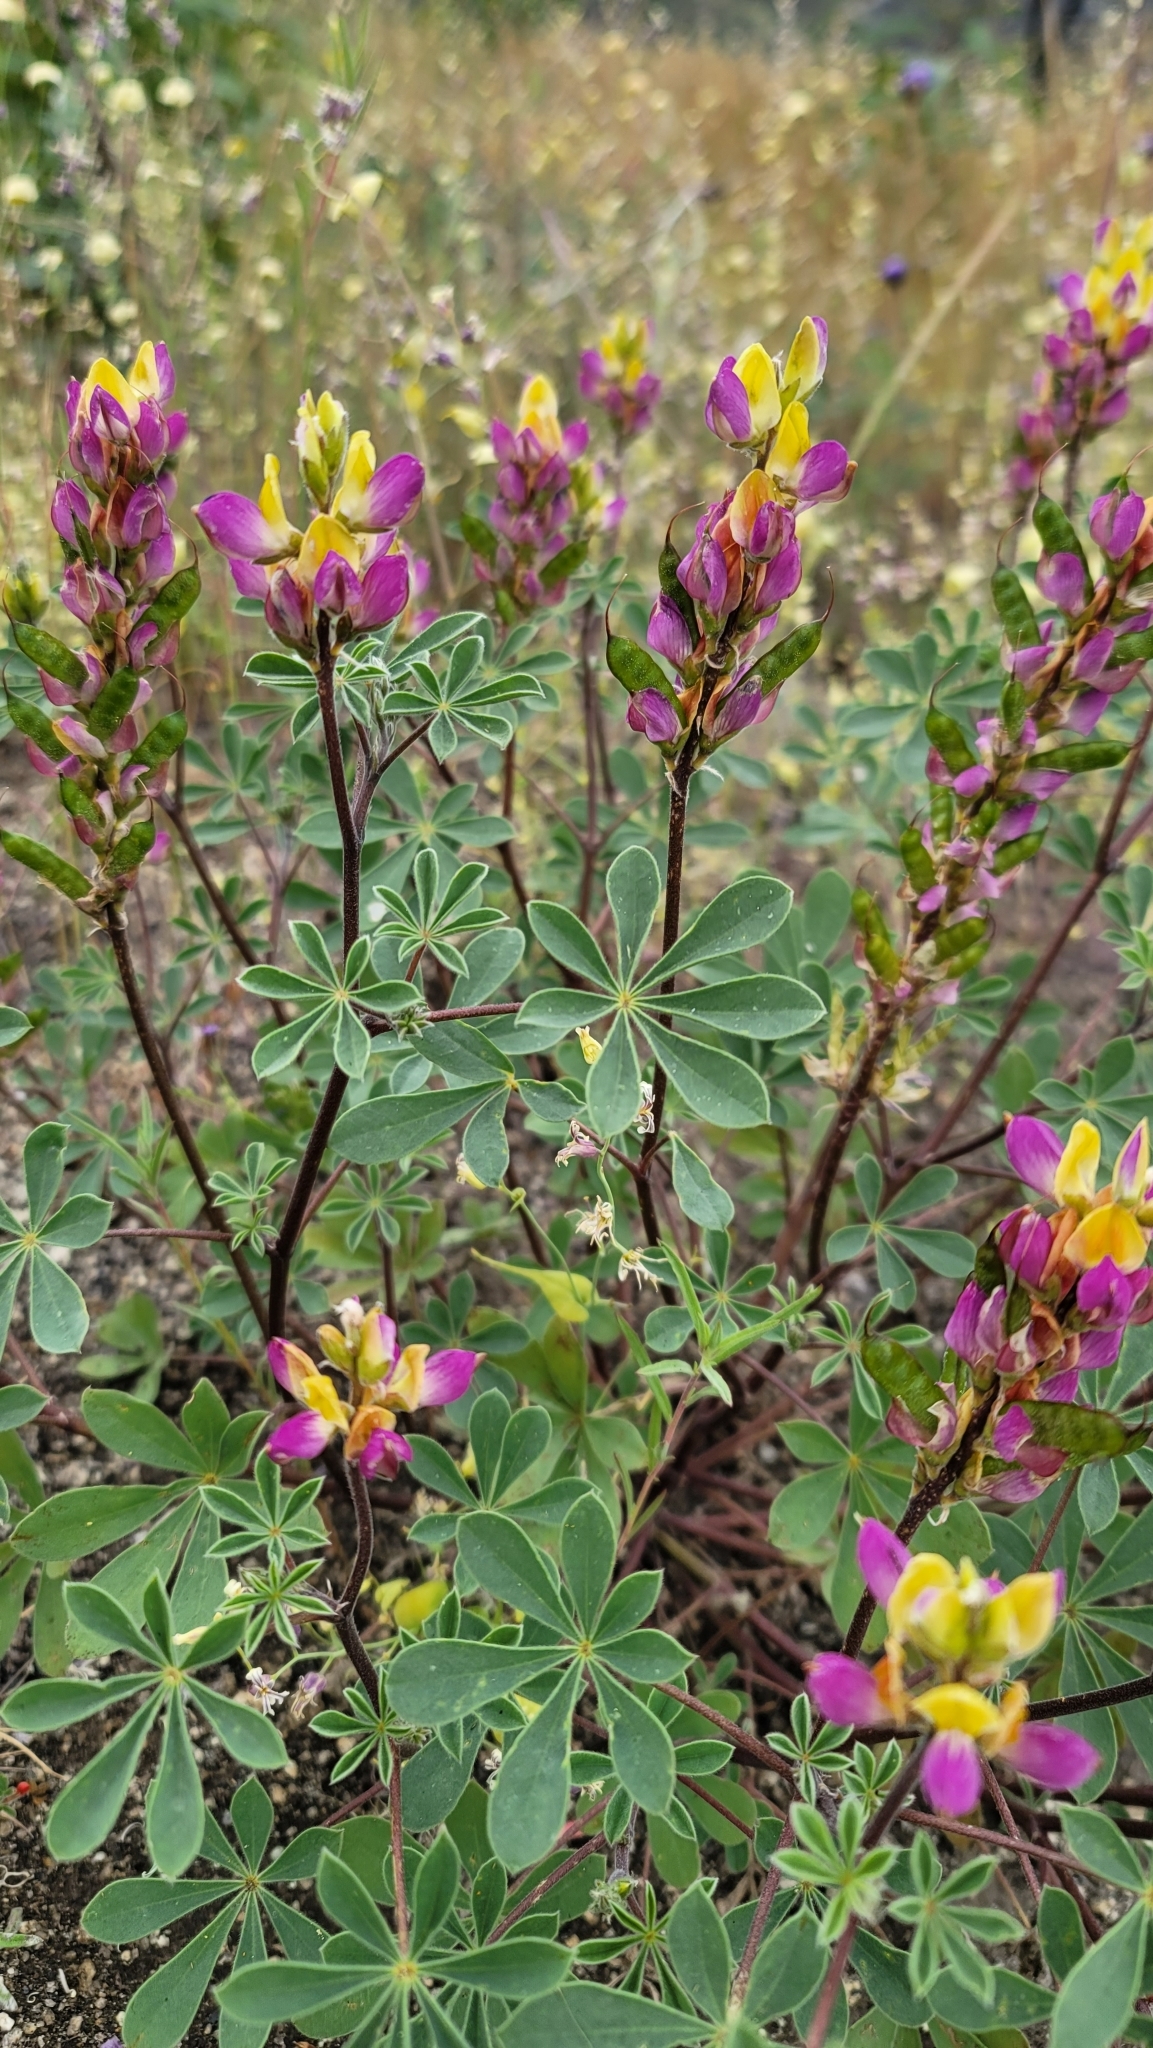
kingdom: Plantae
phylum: Tracheophyta
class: Magnoliopsida
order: Fabales
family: Fabaceae
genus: Lupinus
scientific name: Lupinus stiversii
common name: Harlequin lupine
